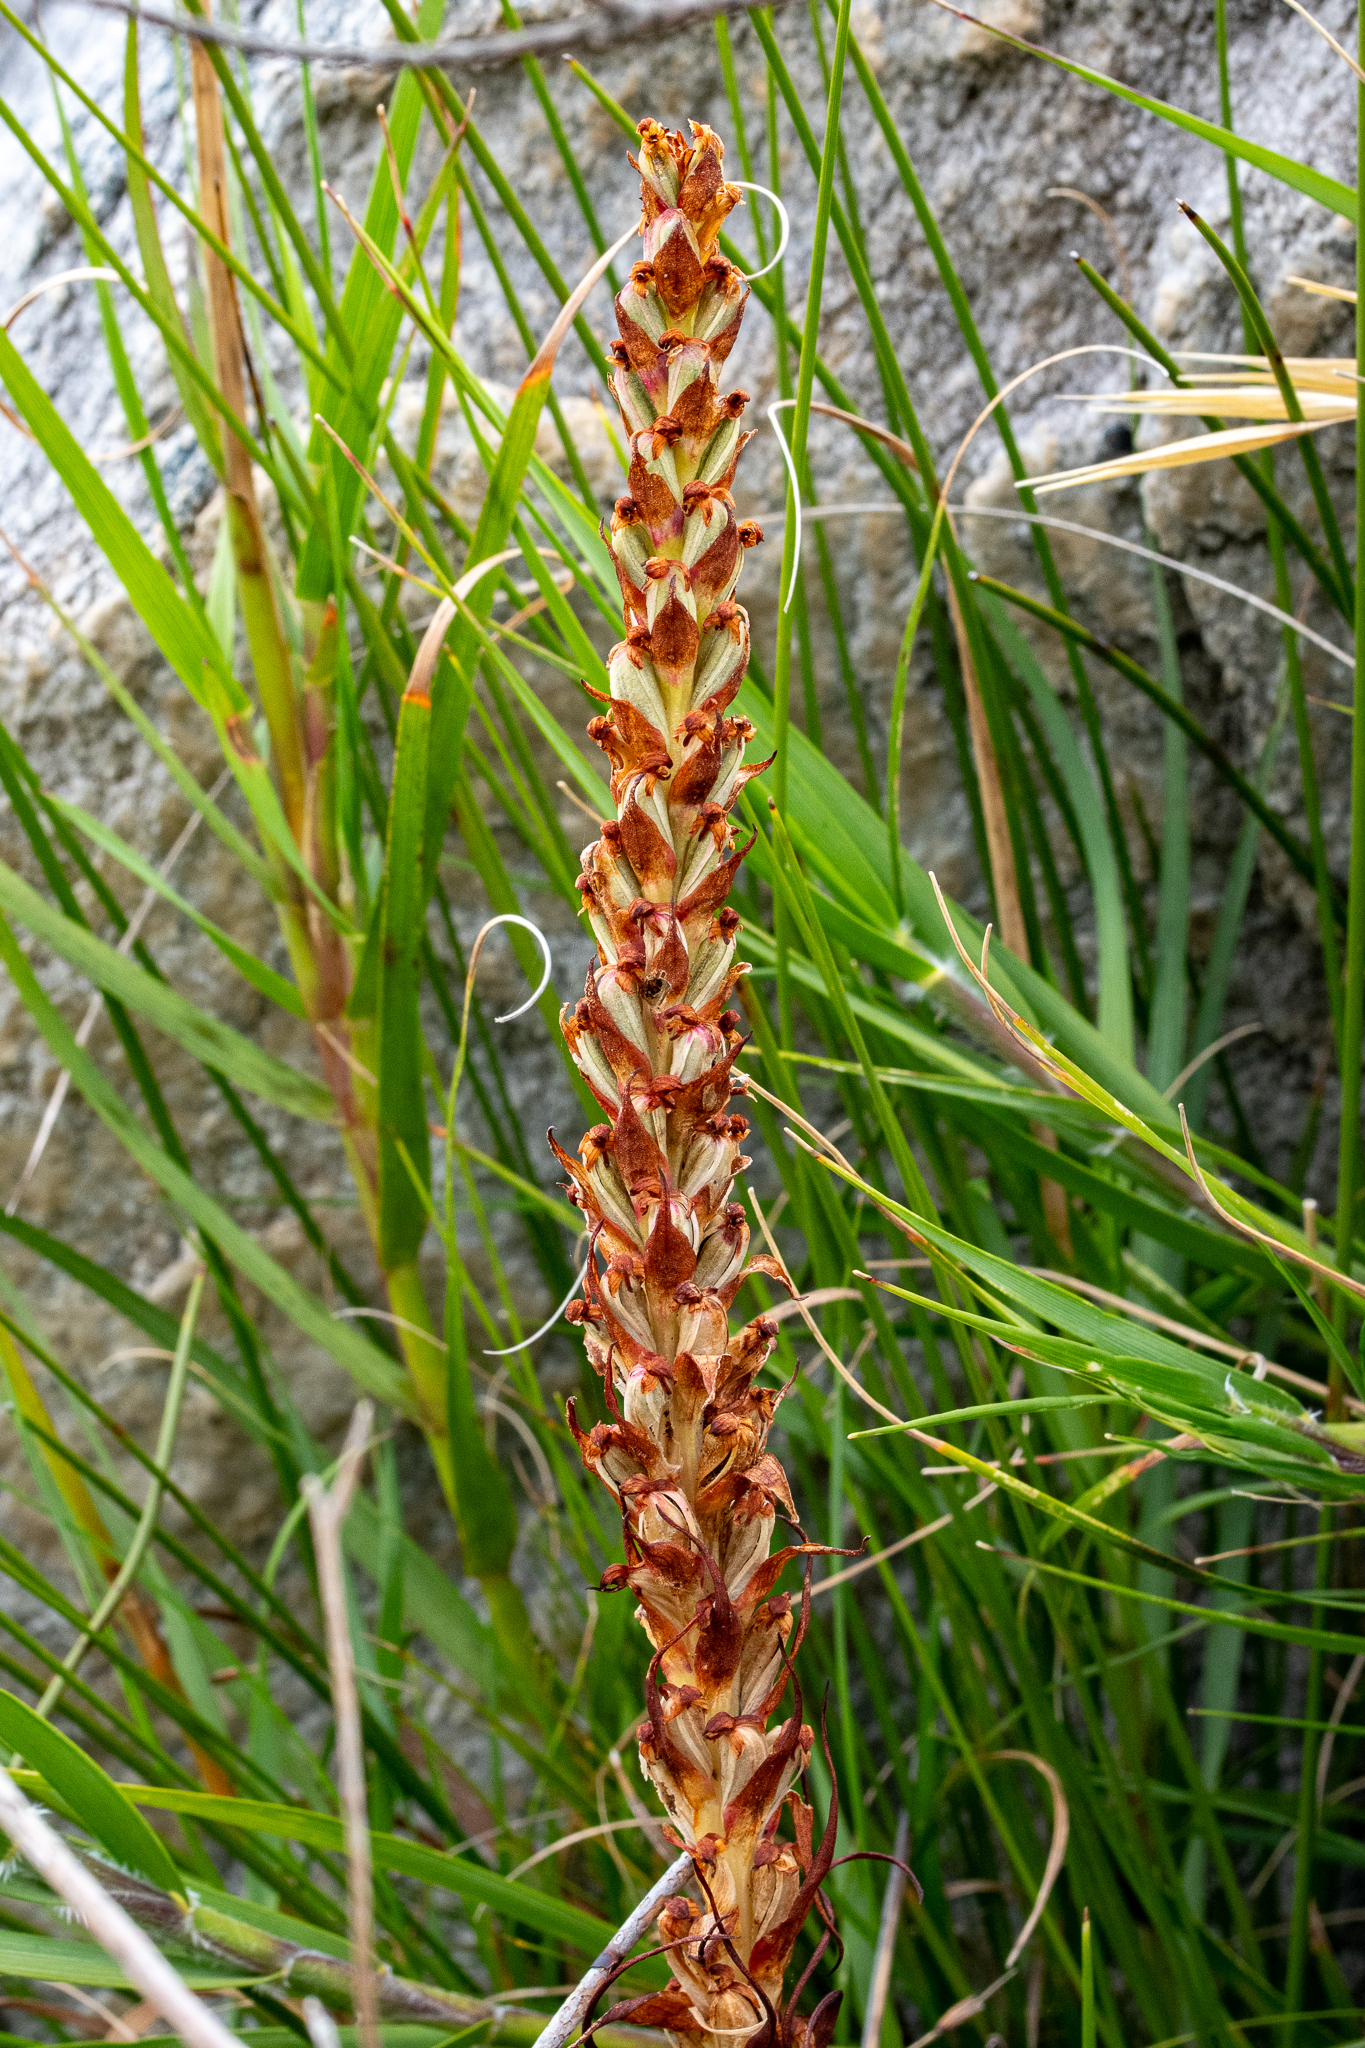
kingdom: Plantae
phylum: Tracheophyta
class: Liliopsida
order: Asparagales
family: Orchidaceae
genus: Disa
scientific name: Disa bracteata
